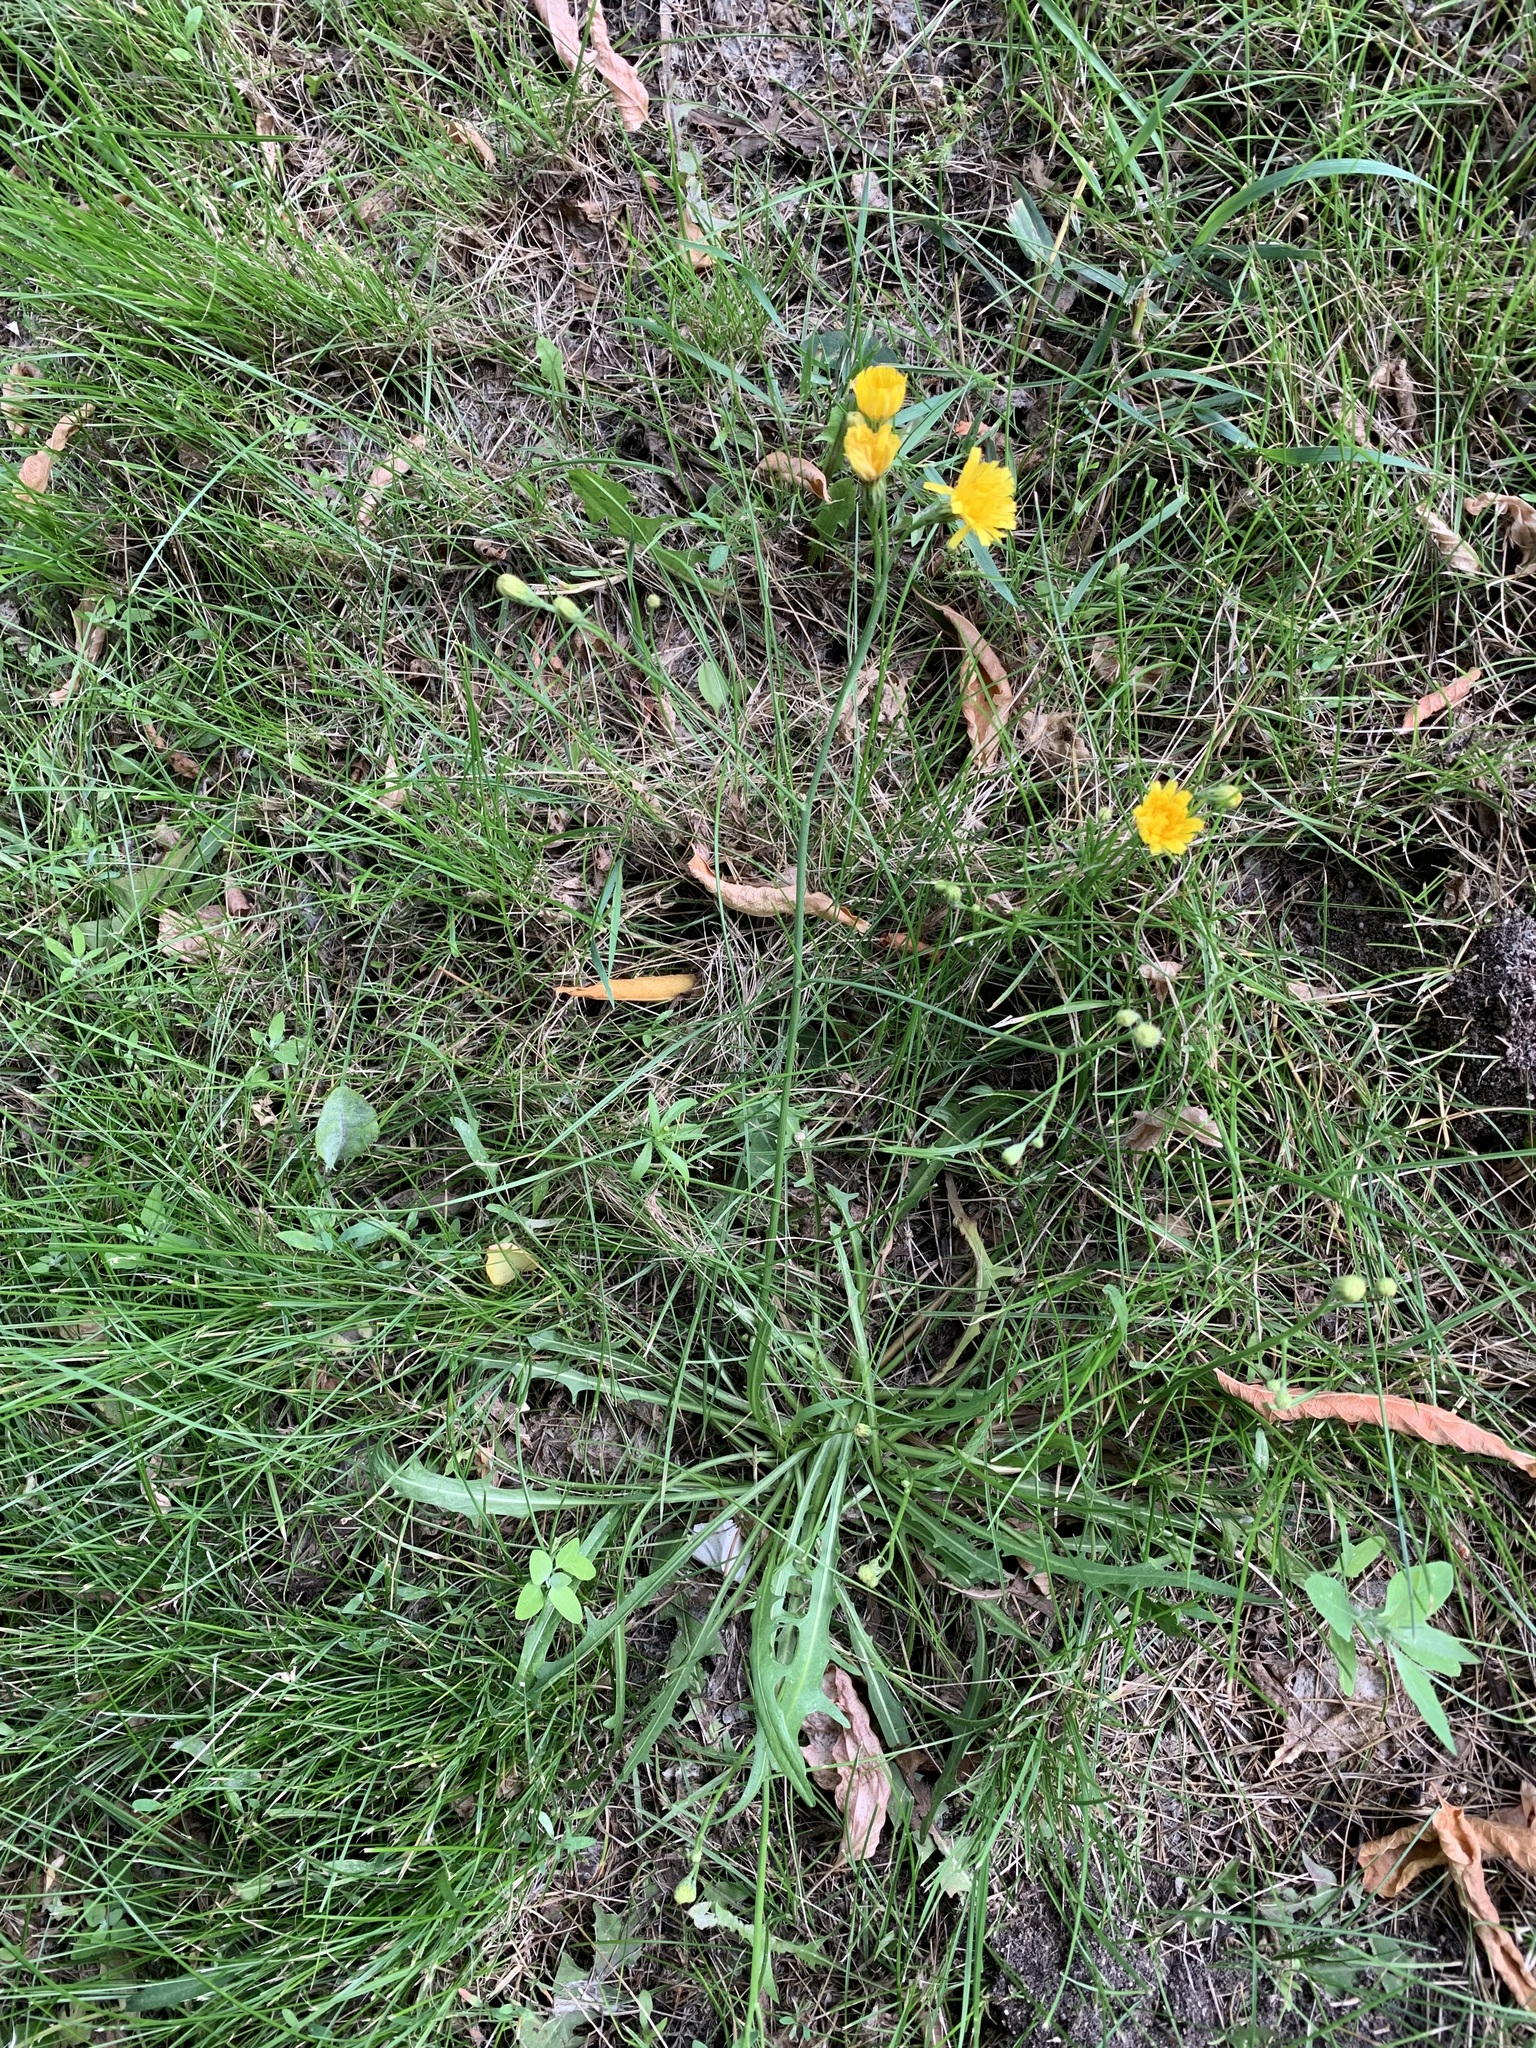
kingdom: Plantae
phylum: Tracheophyta
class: Magnoliopsida
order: Asterales
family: Asteraceae
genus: Scorzoneroides
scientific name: Scorzoneroides autumnalis
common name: Autumn hawkbit
